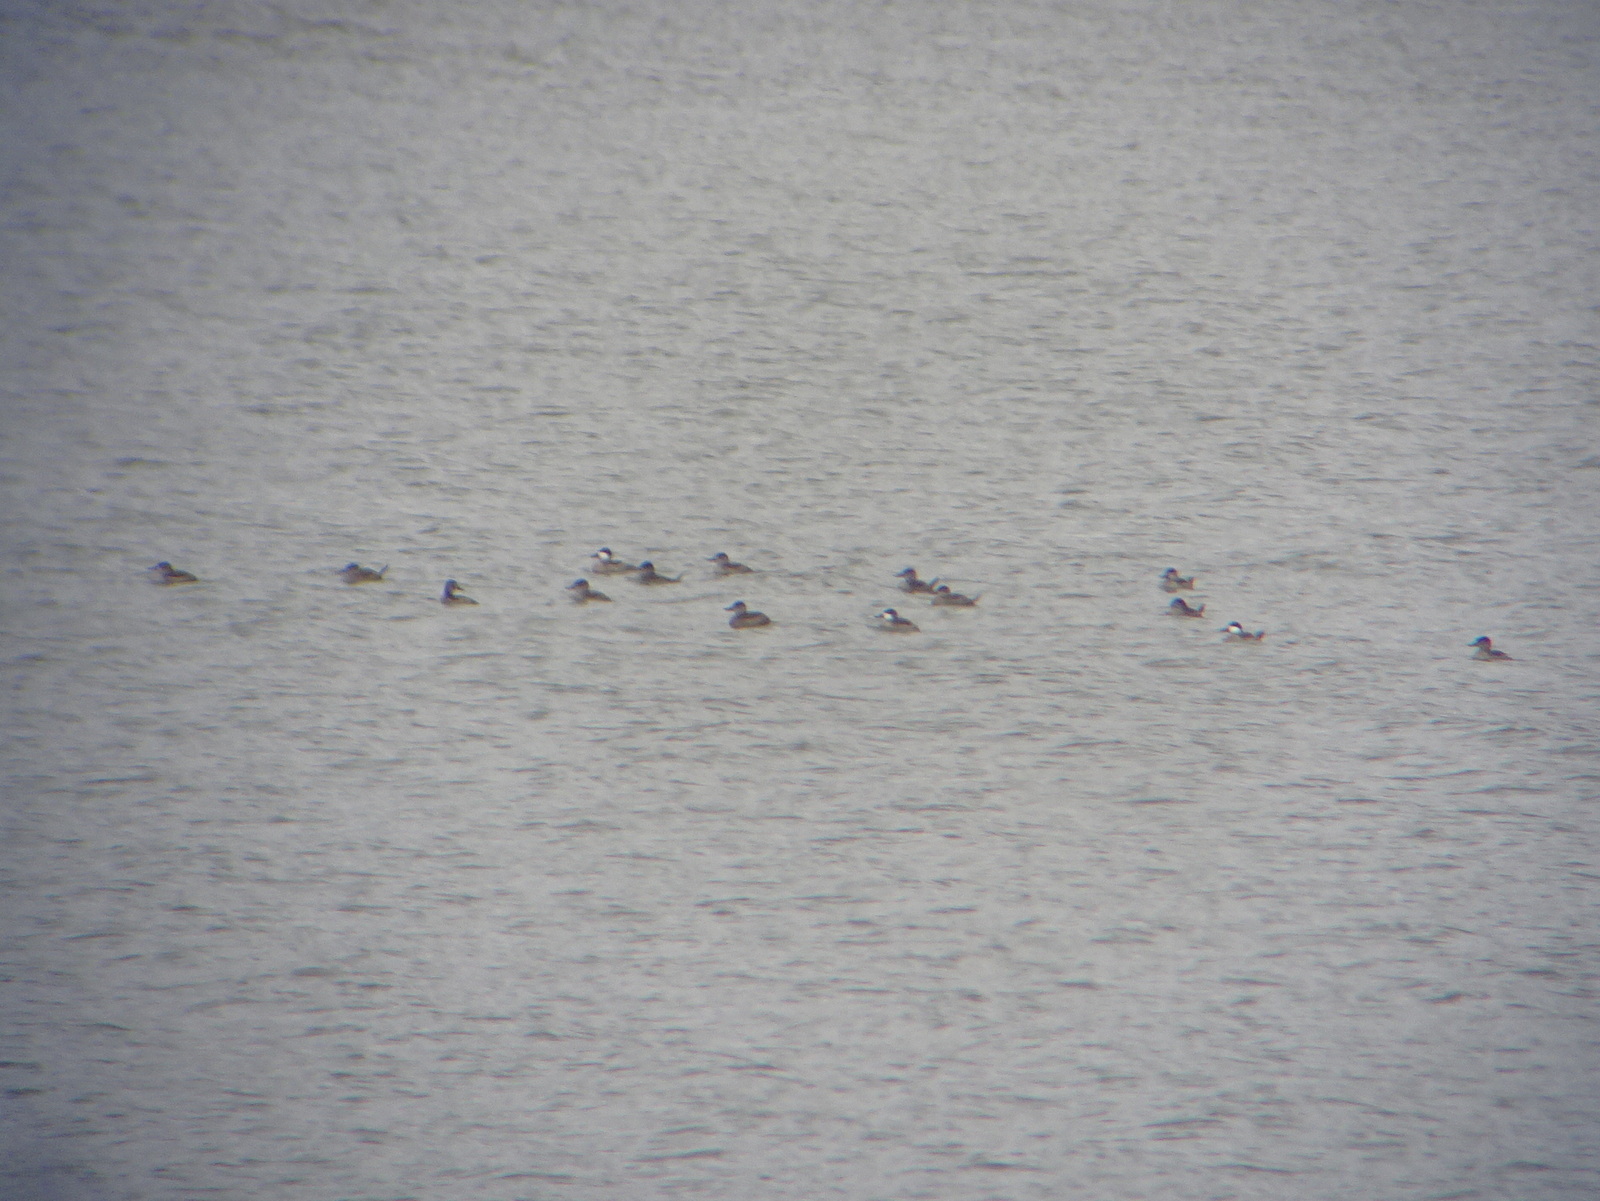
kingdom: Animalia
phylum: Chordata
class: Aves
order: Anseriformes
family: Anatidae
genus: Oxyura
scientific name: Oxyura jamaicensis
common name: Ruddy duck
